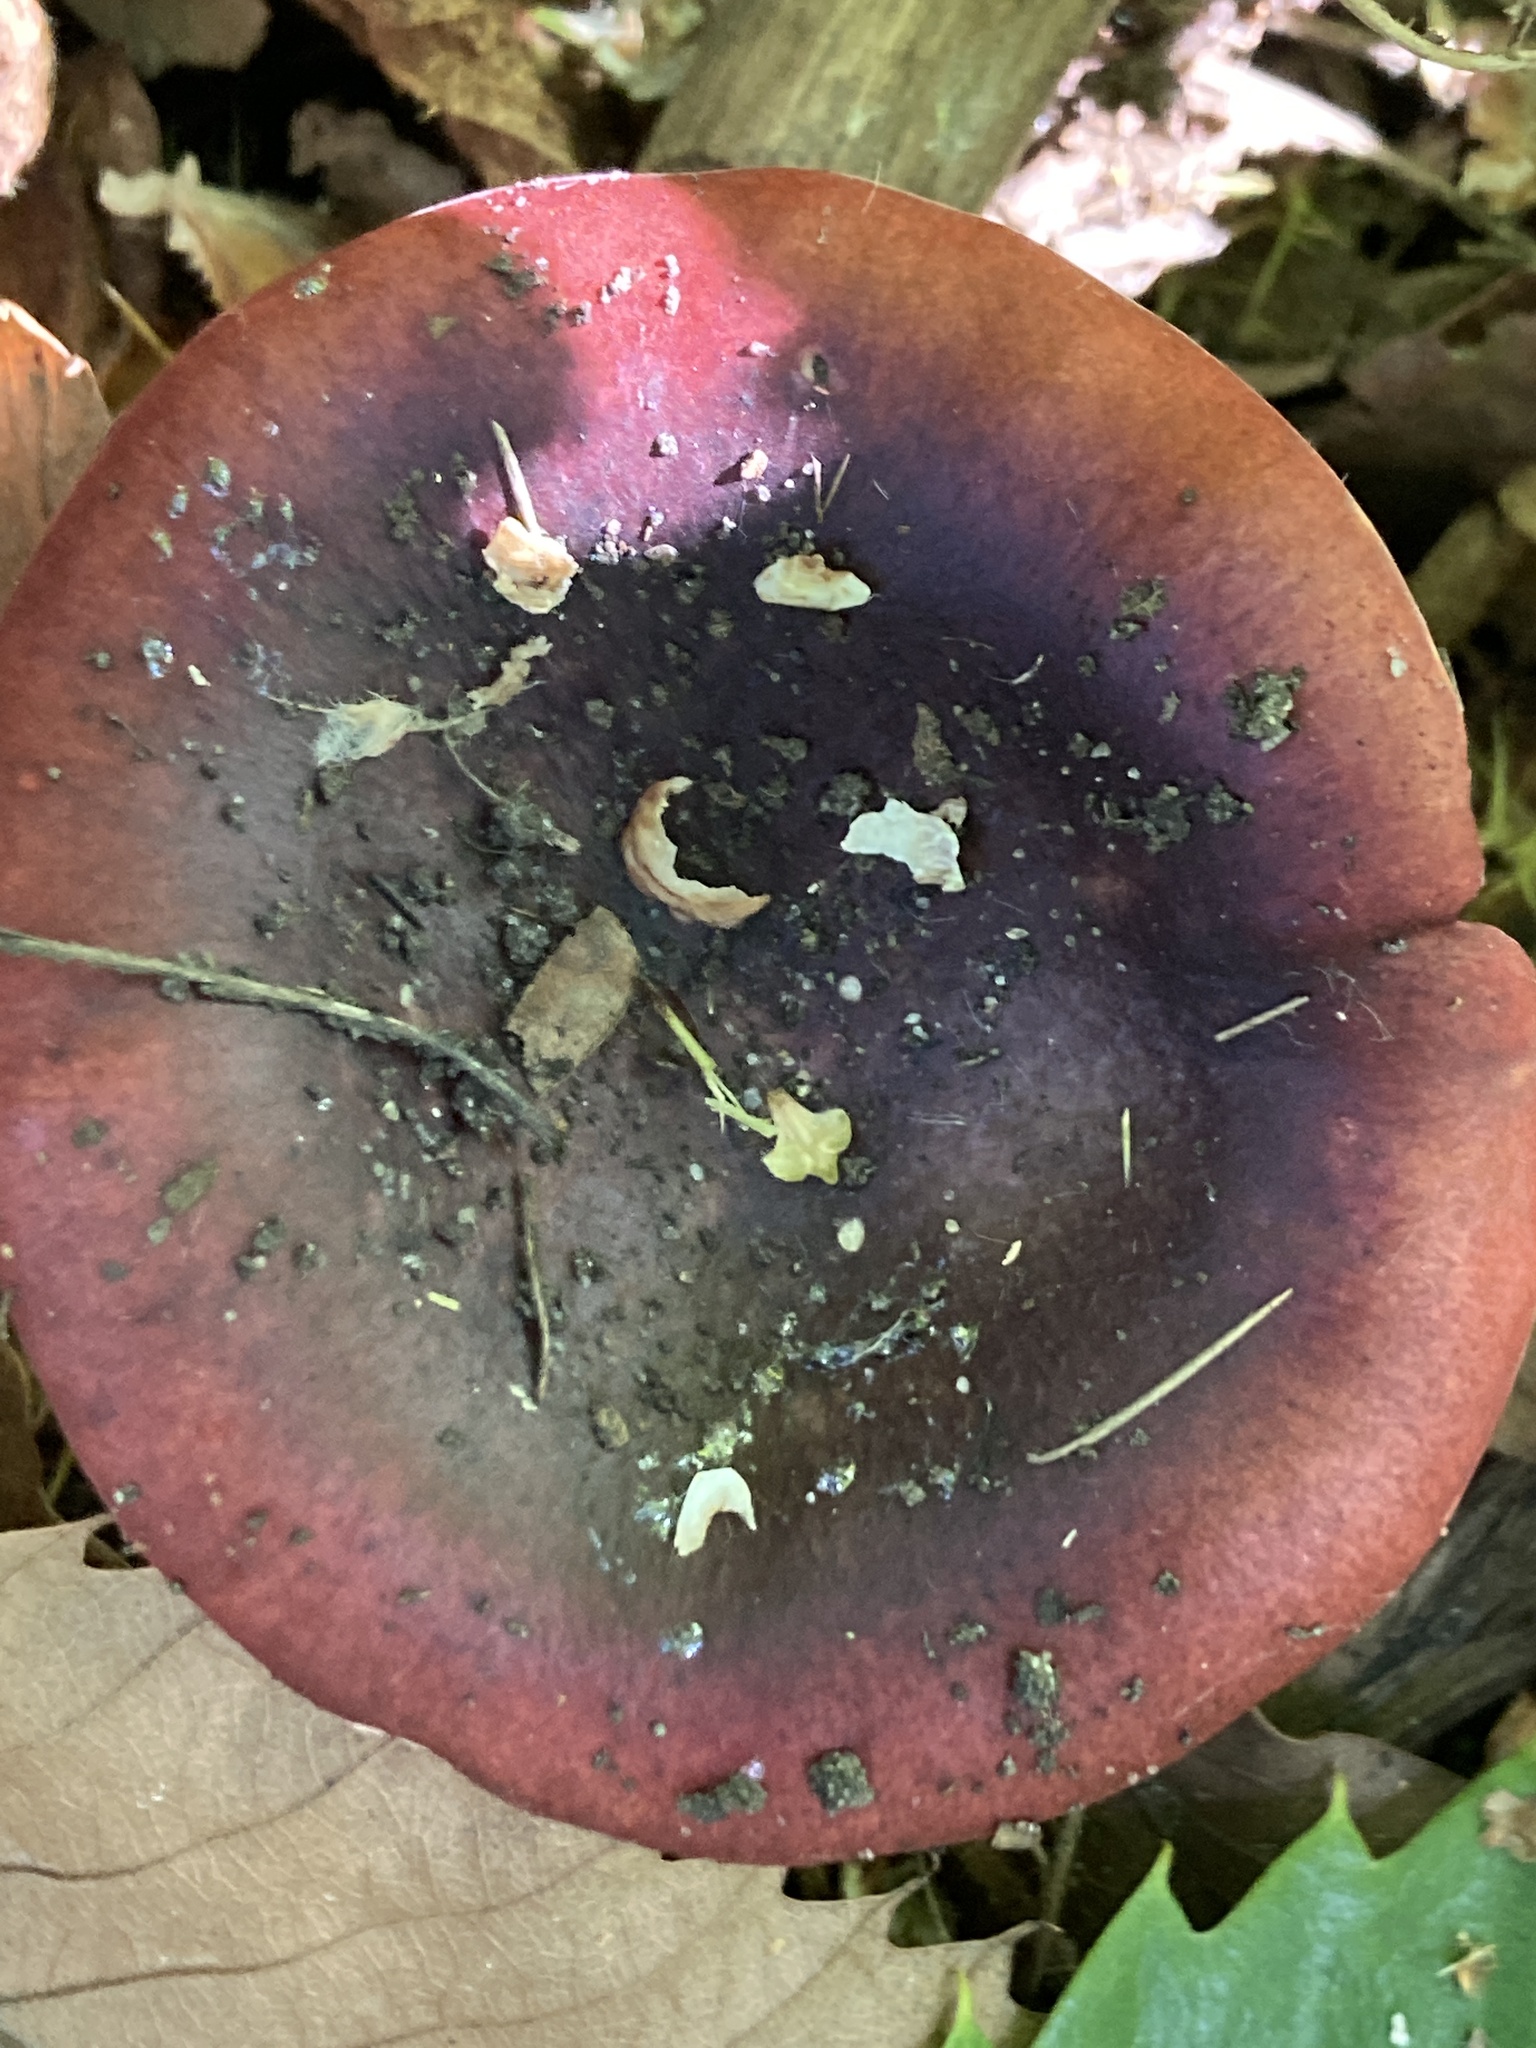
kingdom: Fungi
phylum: Basidiomycota
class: Agaricomycetes
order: Russulales
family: Russulaceae
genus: Russula
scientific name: Russula
